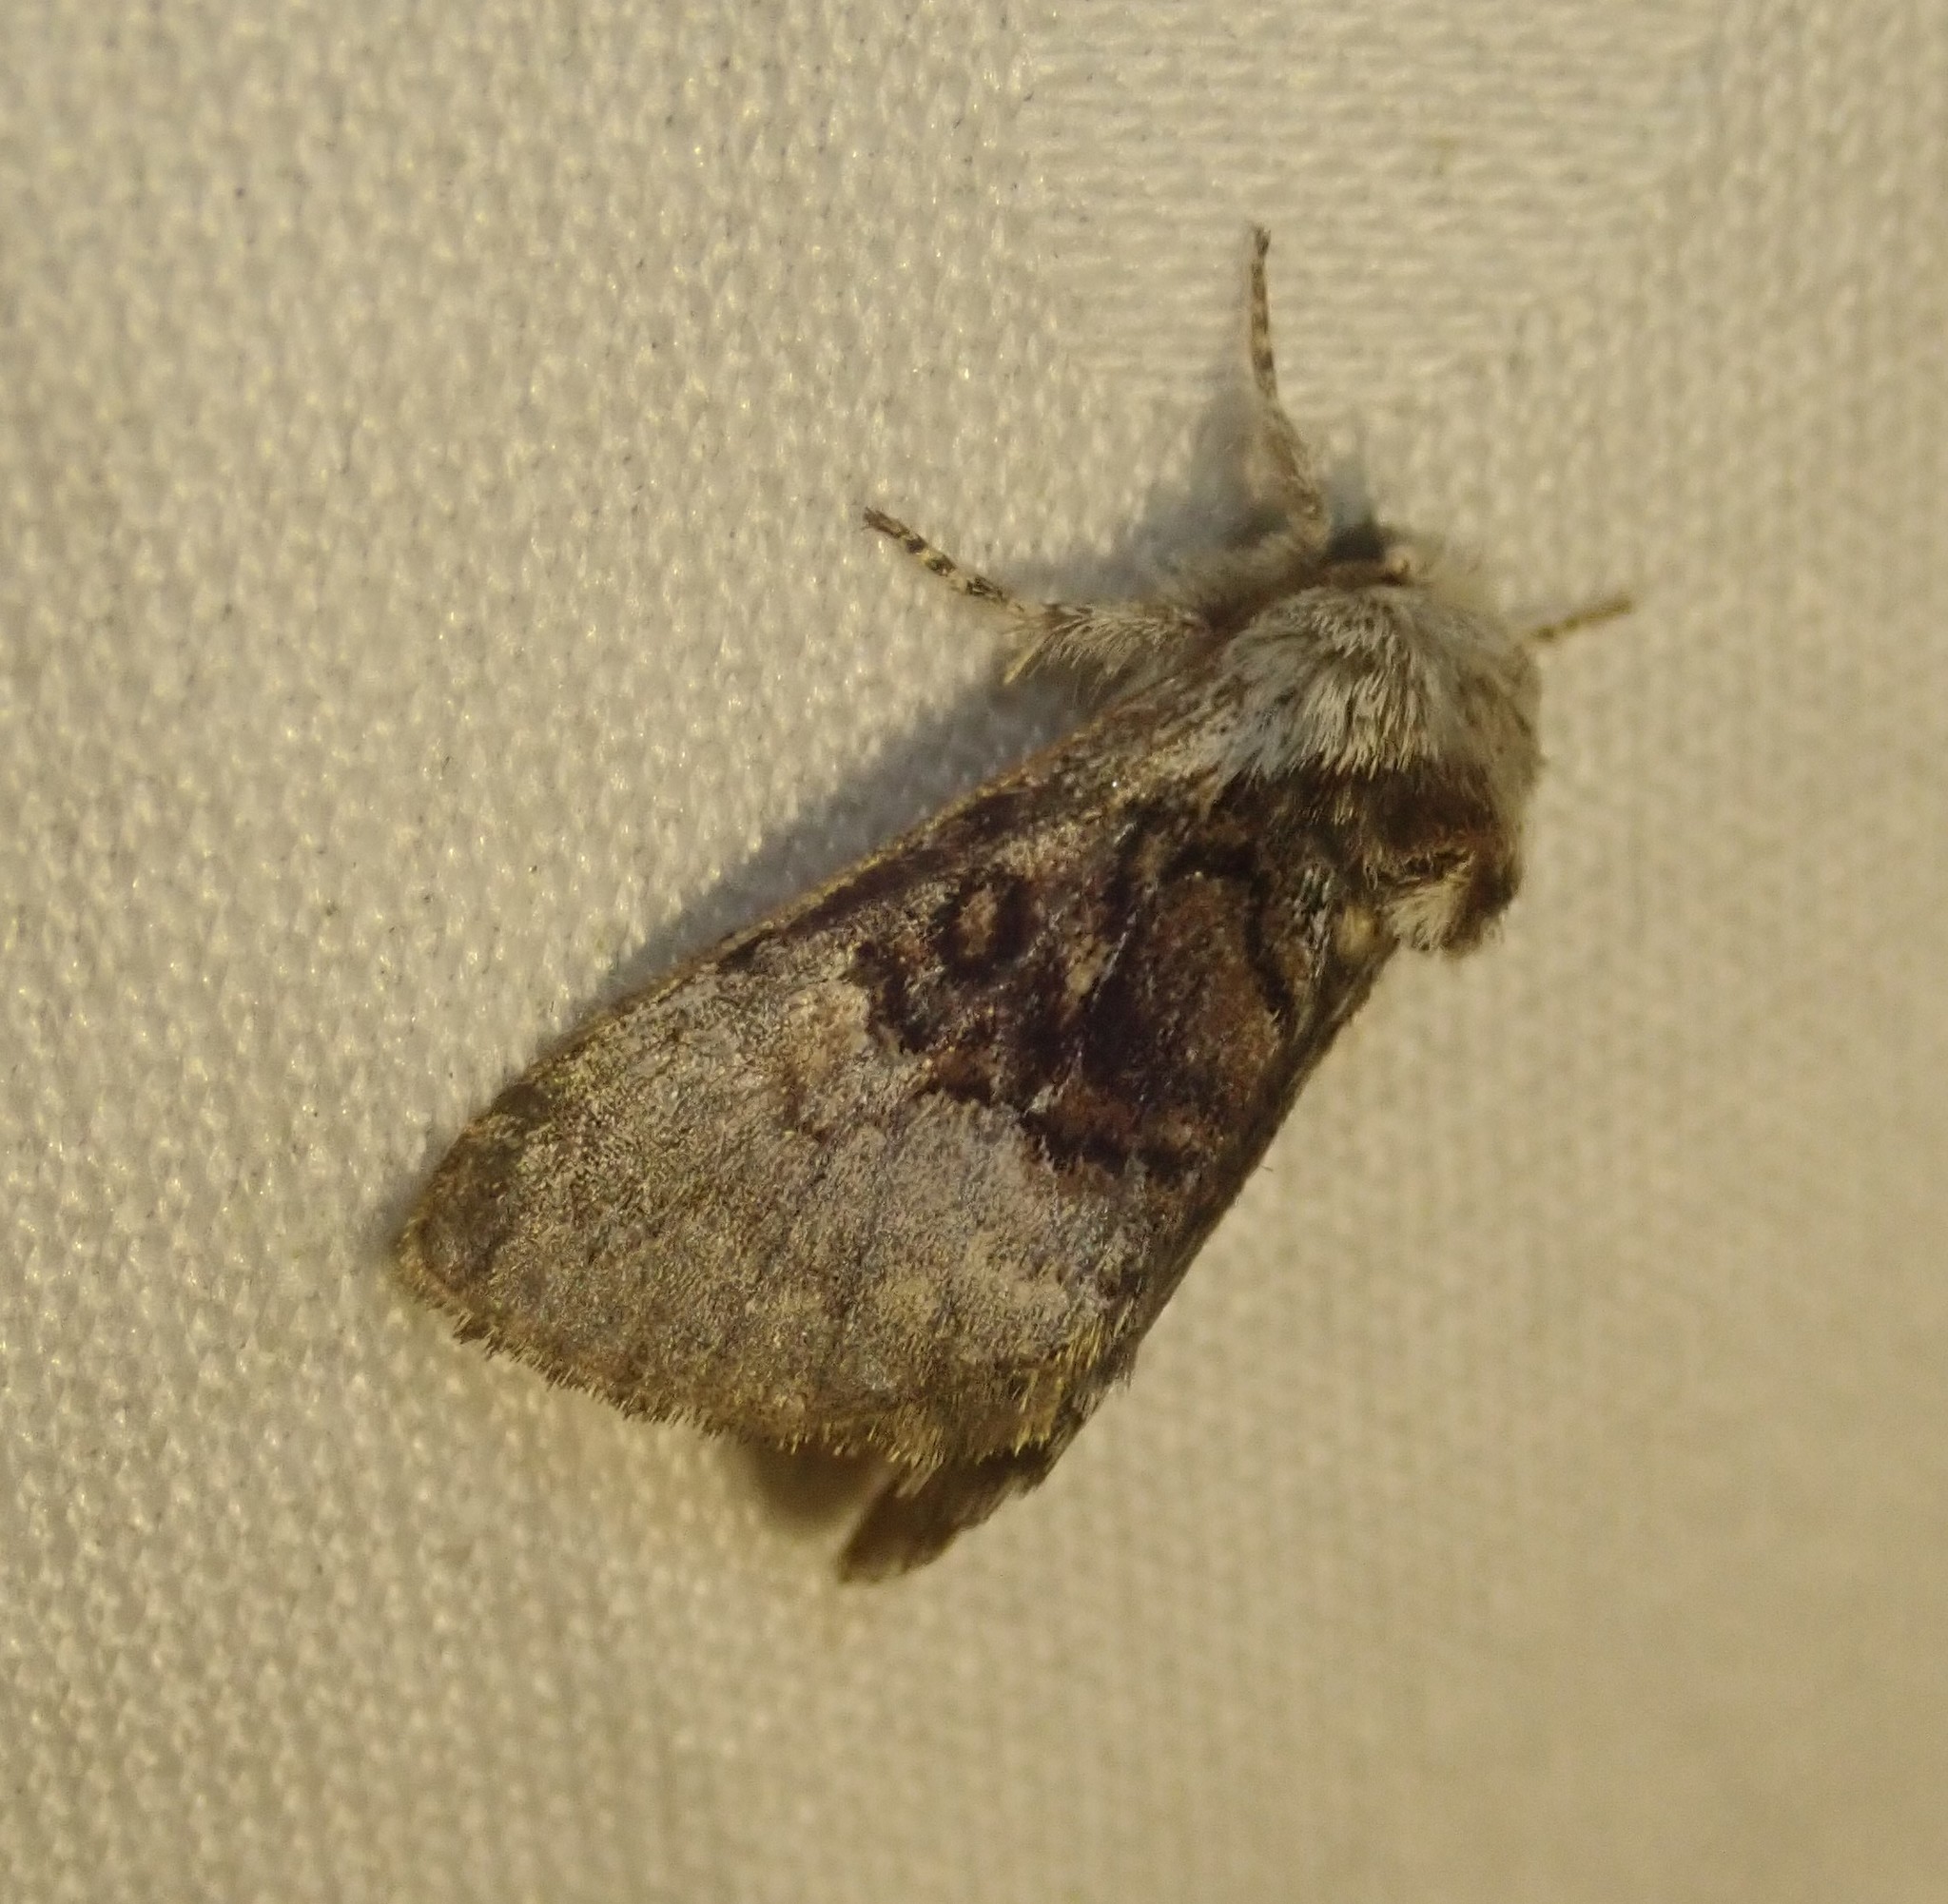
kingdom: Animalia
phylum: Arthropoda
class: Insecta
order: Lepidoptera
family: Noctuidae
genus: Colocasia
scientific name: Colocasia coryli
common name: Nut-tree tussock
